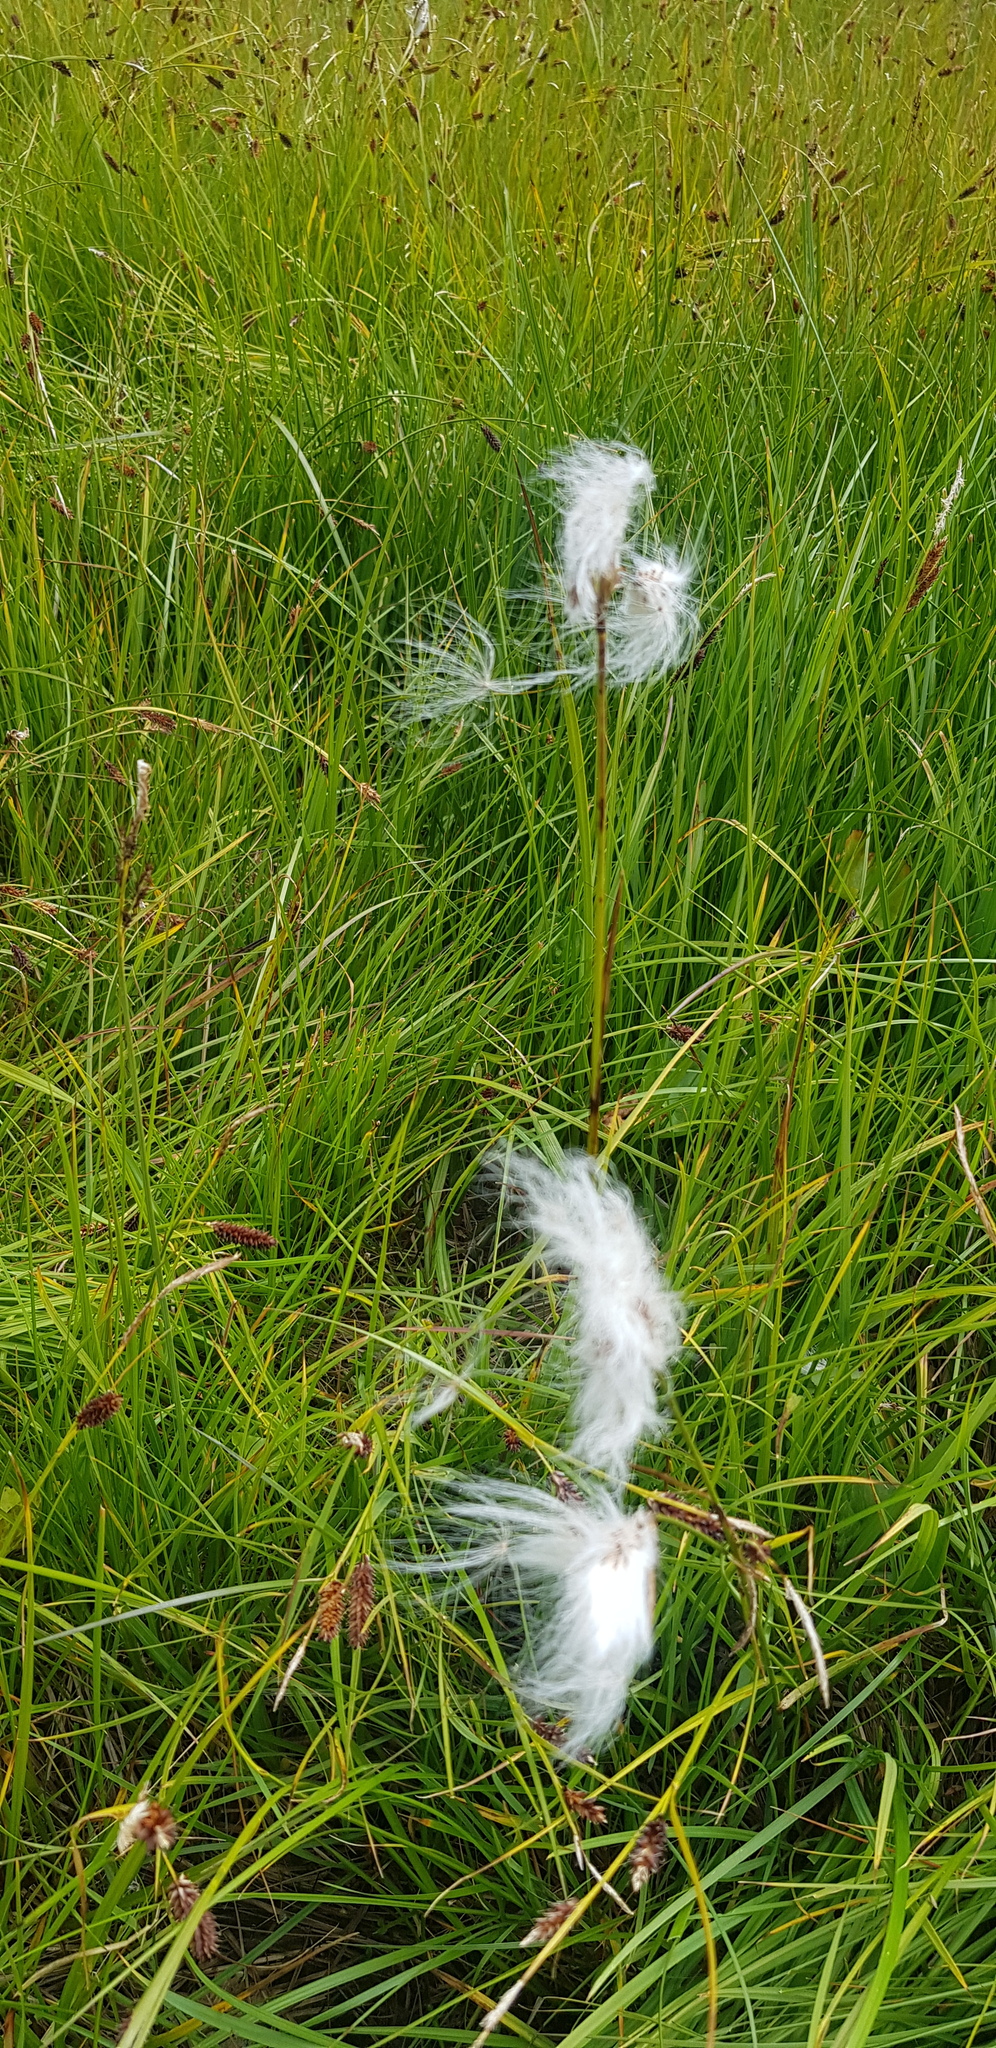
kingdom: Plantae
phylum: Tracheophyta
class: Liliopsida
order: Poales
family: Cyperaceae
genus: Eriophorum
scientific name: Eriophorum angustifolium
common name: Common cottongrass
